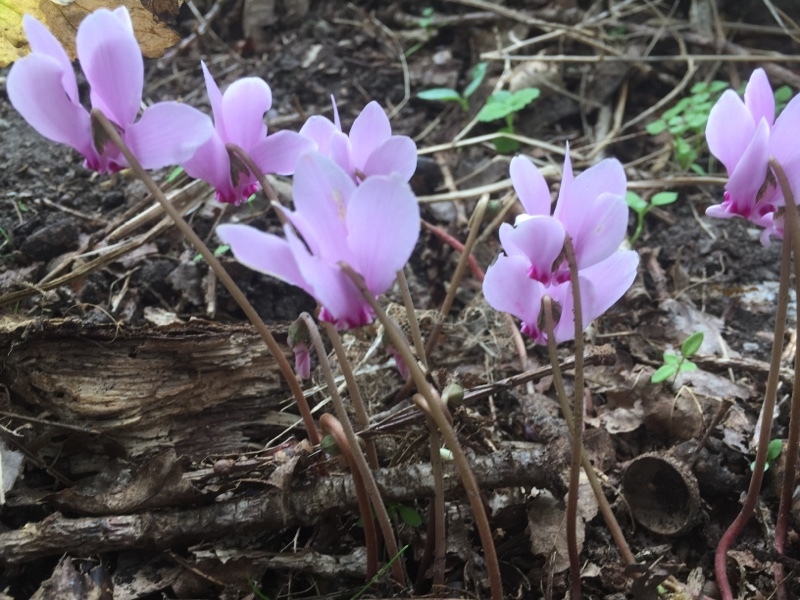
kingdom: Plantae
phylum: Tracheophyta
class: Magnoliopsida
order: Ericales
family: Primulaceae
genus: Cyclamen
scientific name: Cyclamen hederifolium
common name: Sowbread
